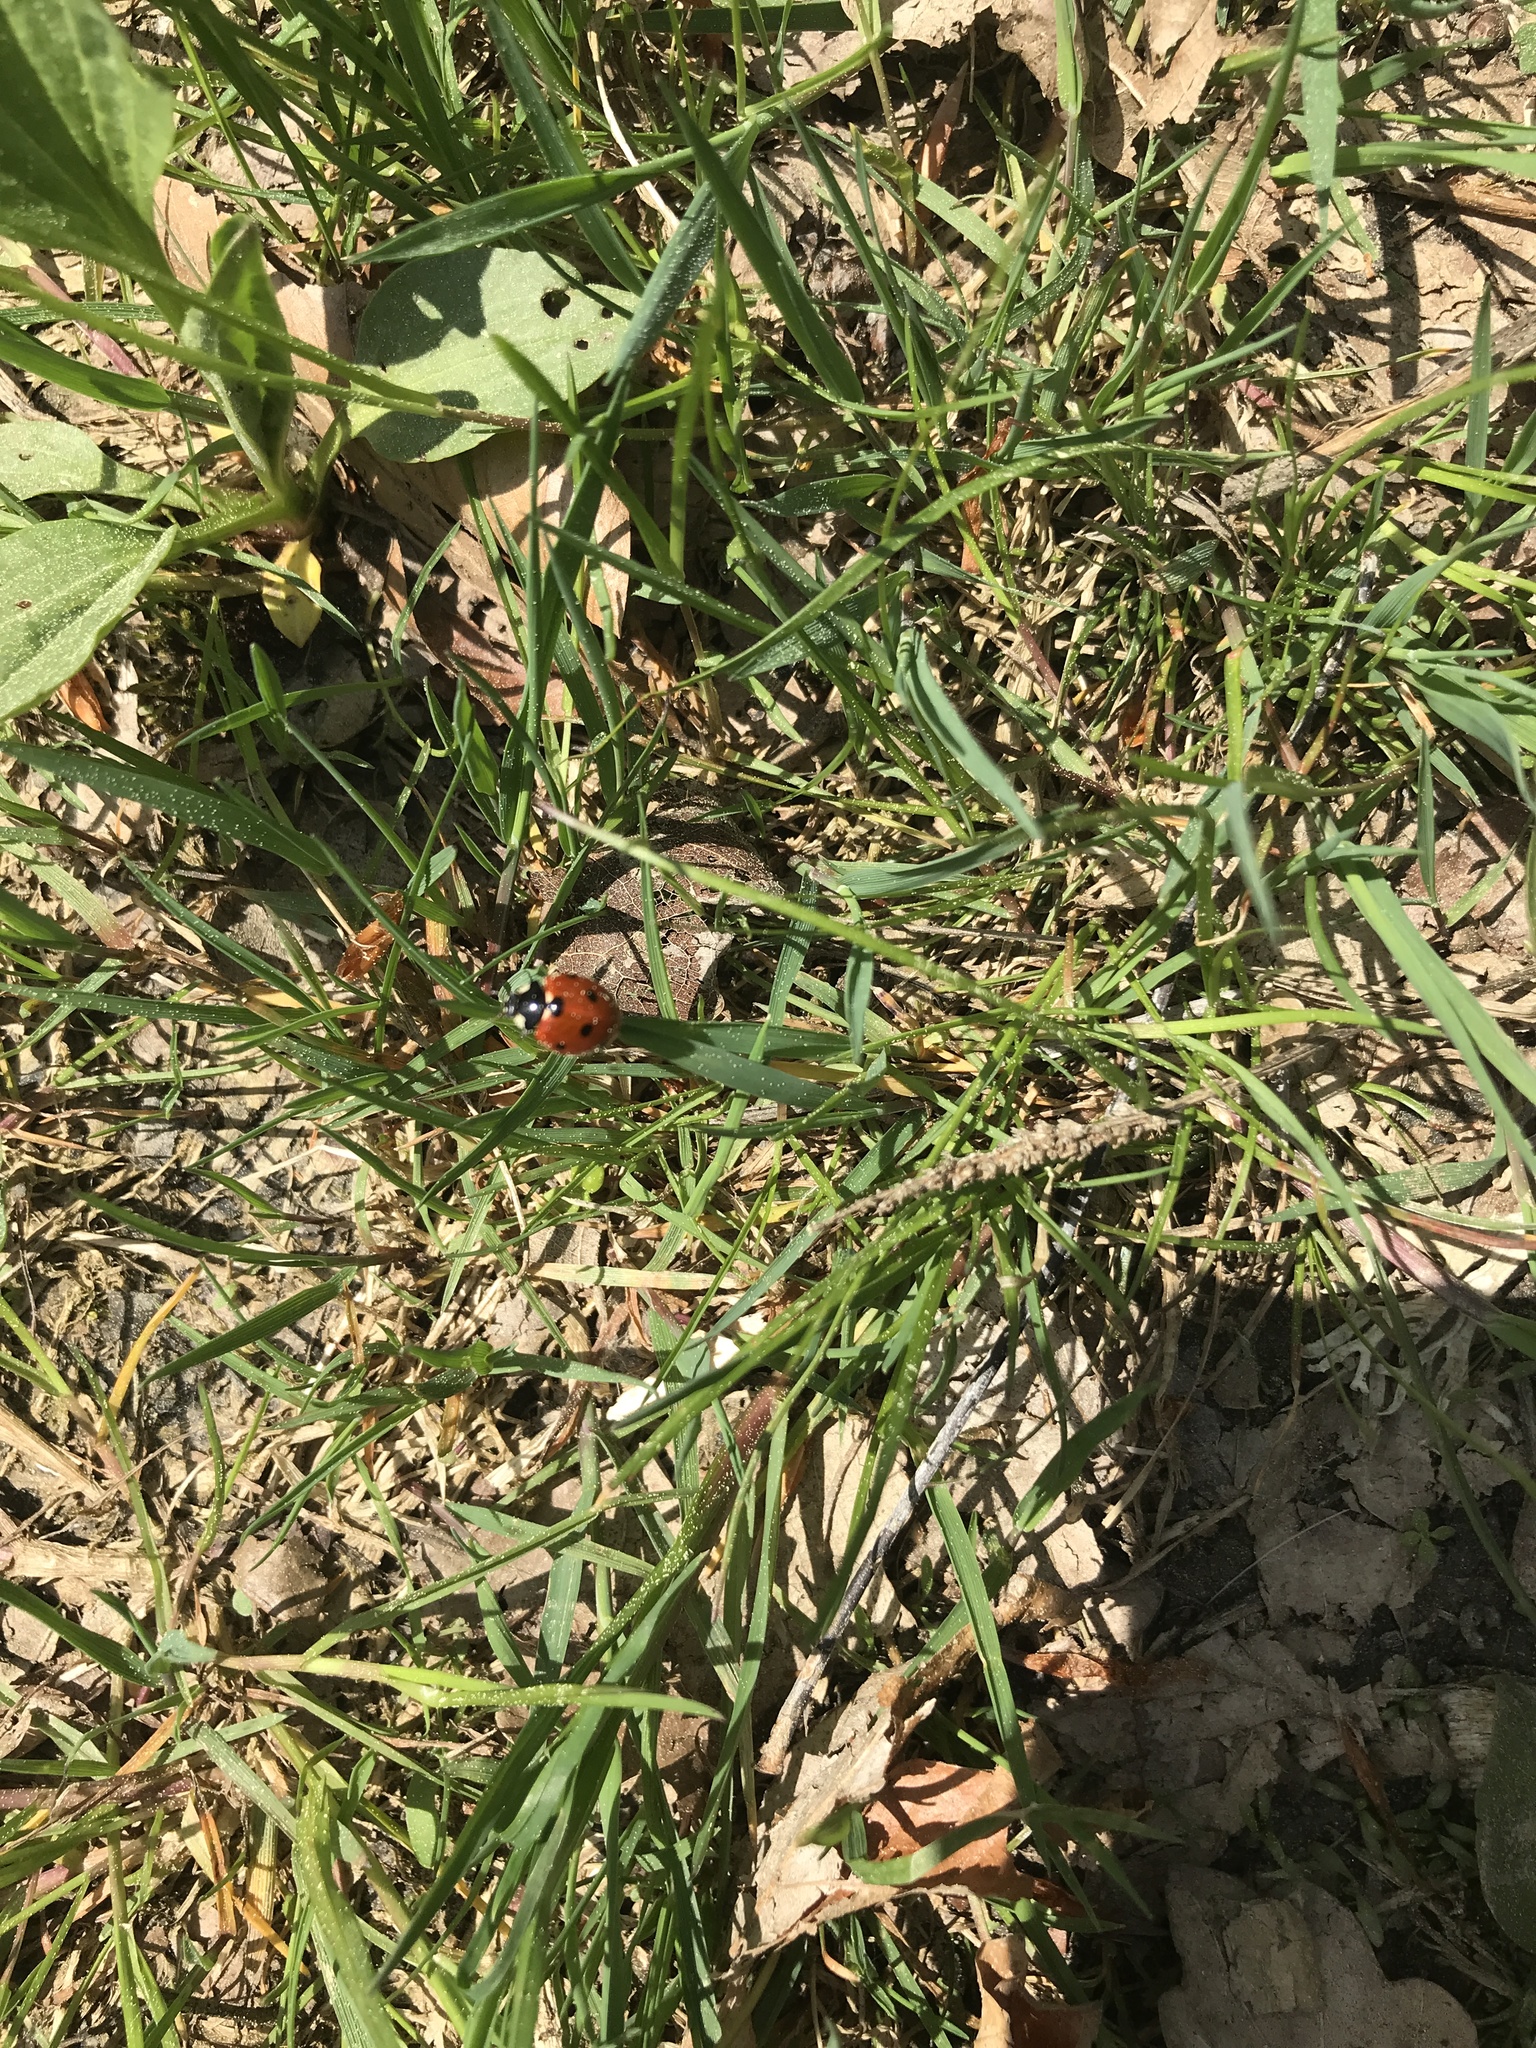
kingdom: Animalia
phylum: Arthropoda
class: Insecta
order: Coleoptera
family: Coccinellidae
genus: Coccinella
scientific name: Coccinella septempunctata
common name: Sevenspotted lady beetle
